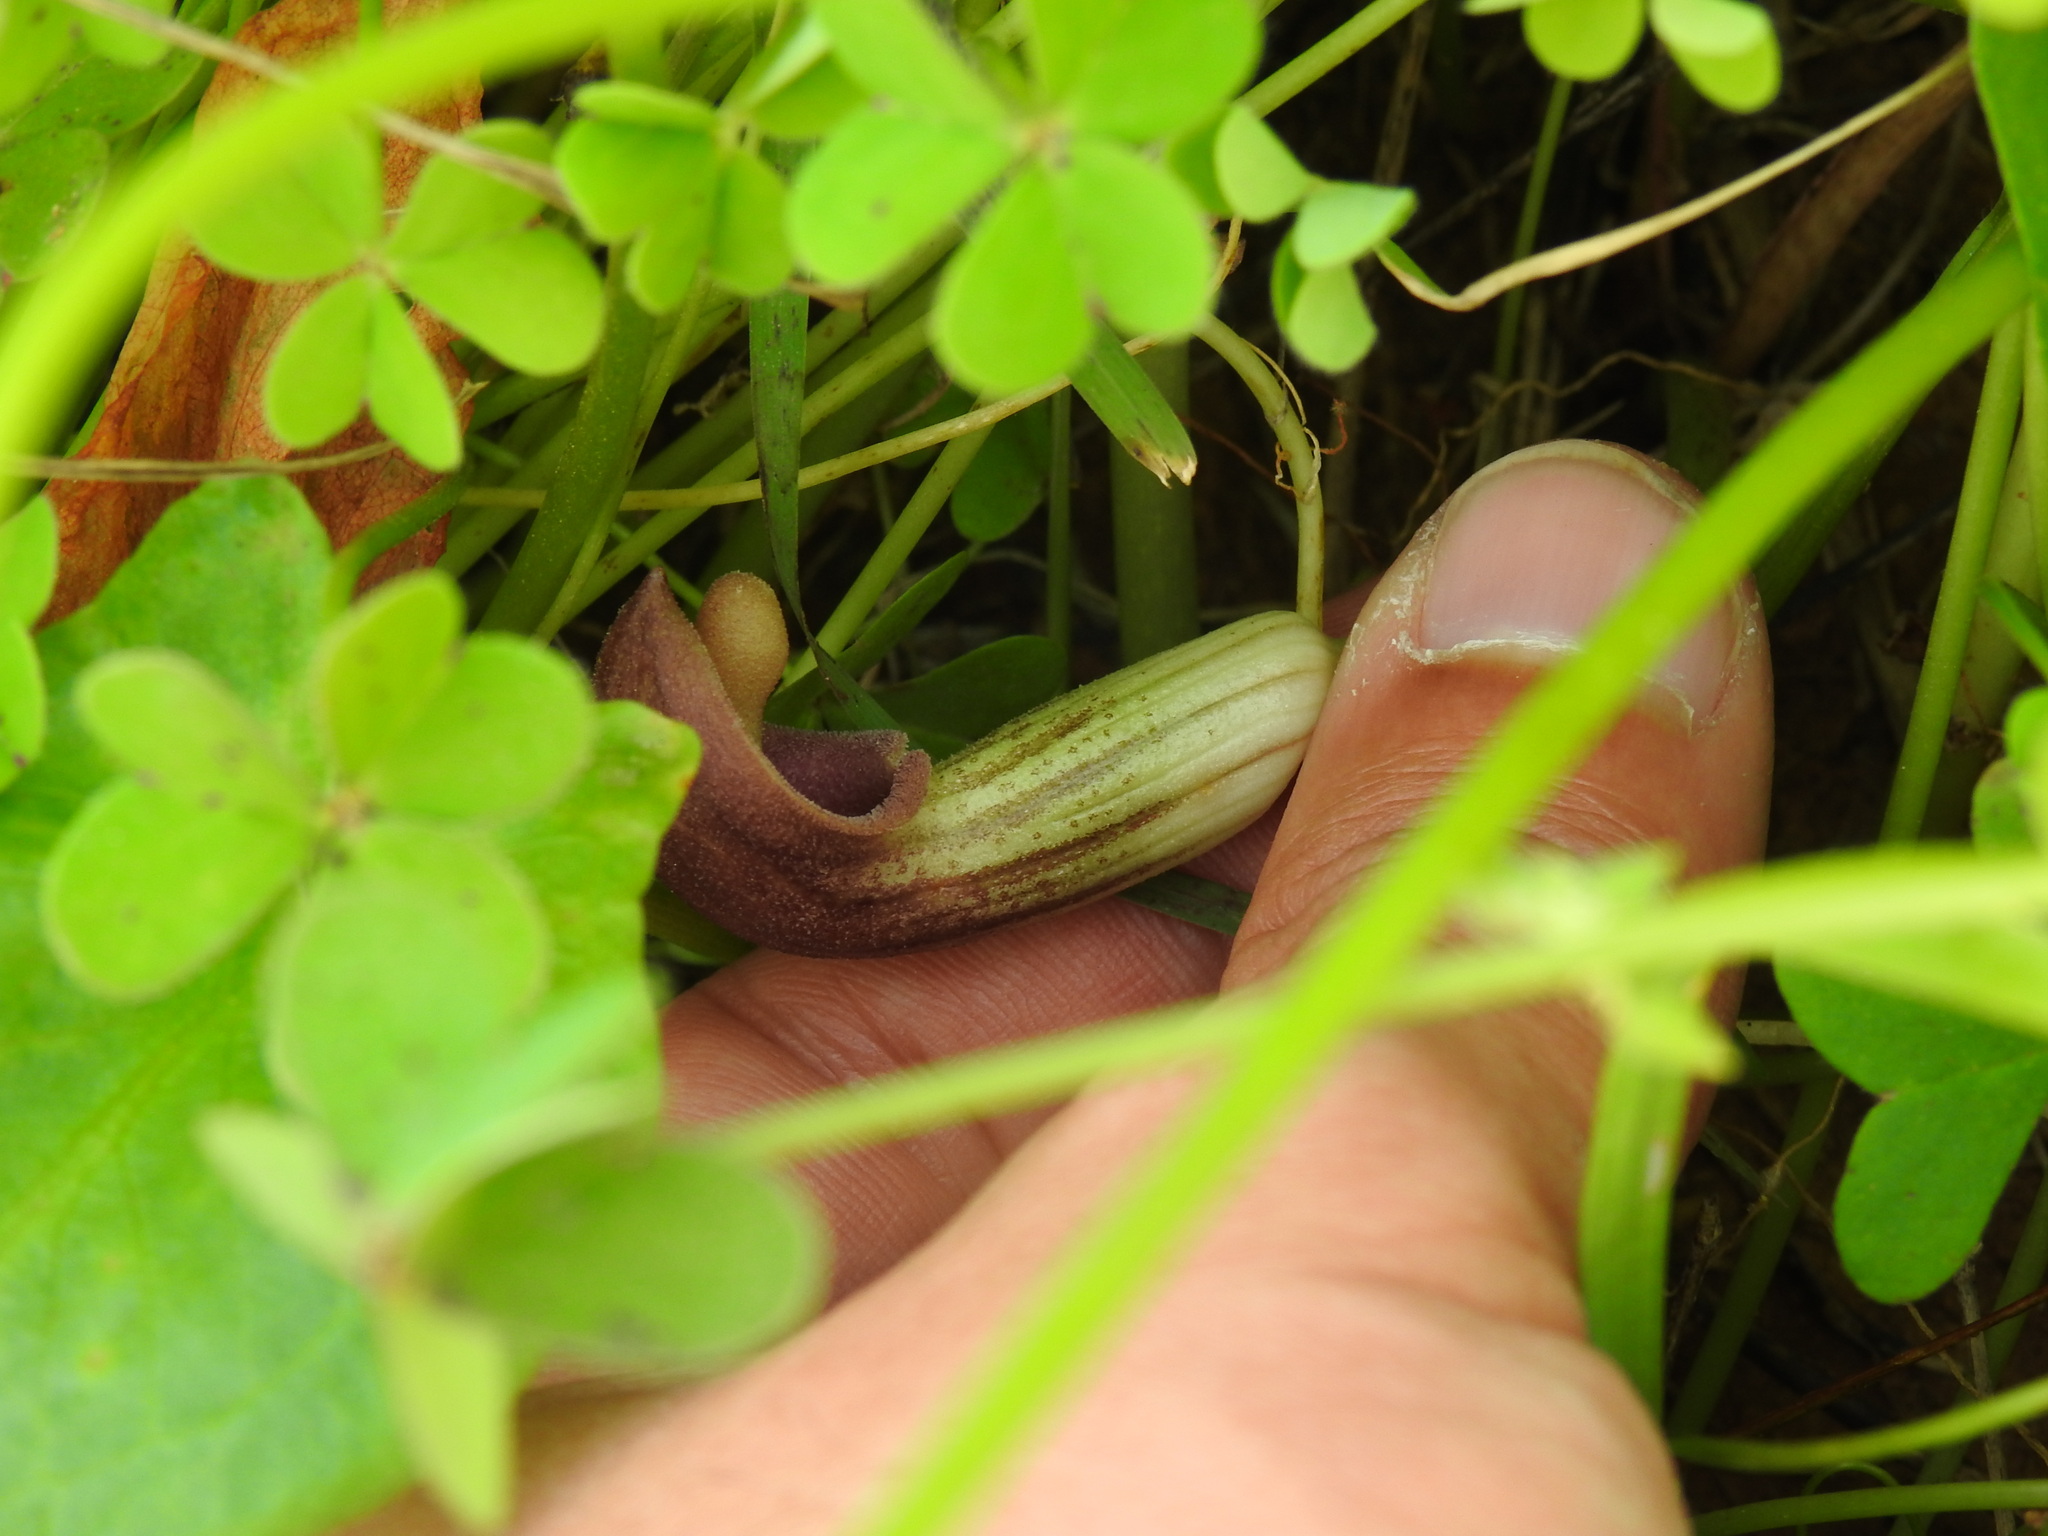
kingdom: Plantae
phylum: Tracheophyta
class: Liliopsida
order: Alismatales
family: Araceae
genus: Arisarum
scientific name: Arisarum simorrhinum
